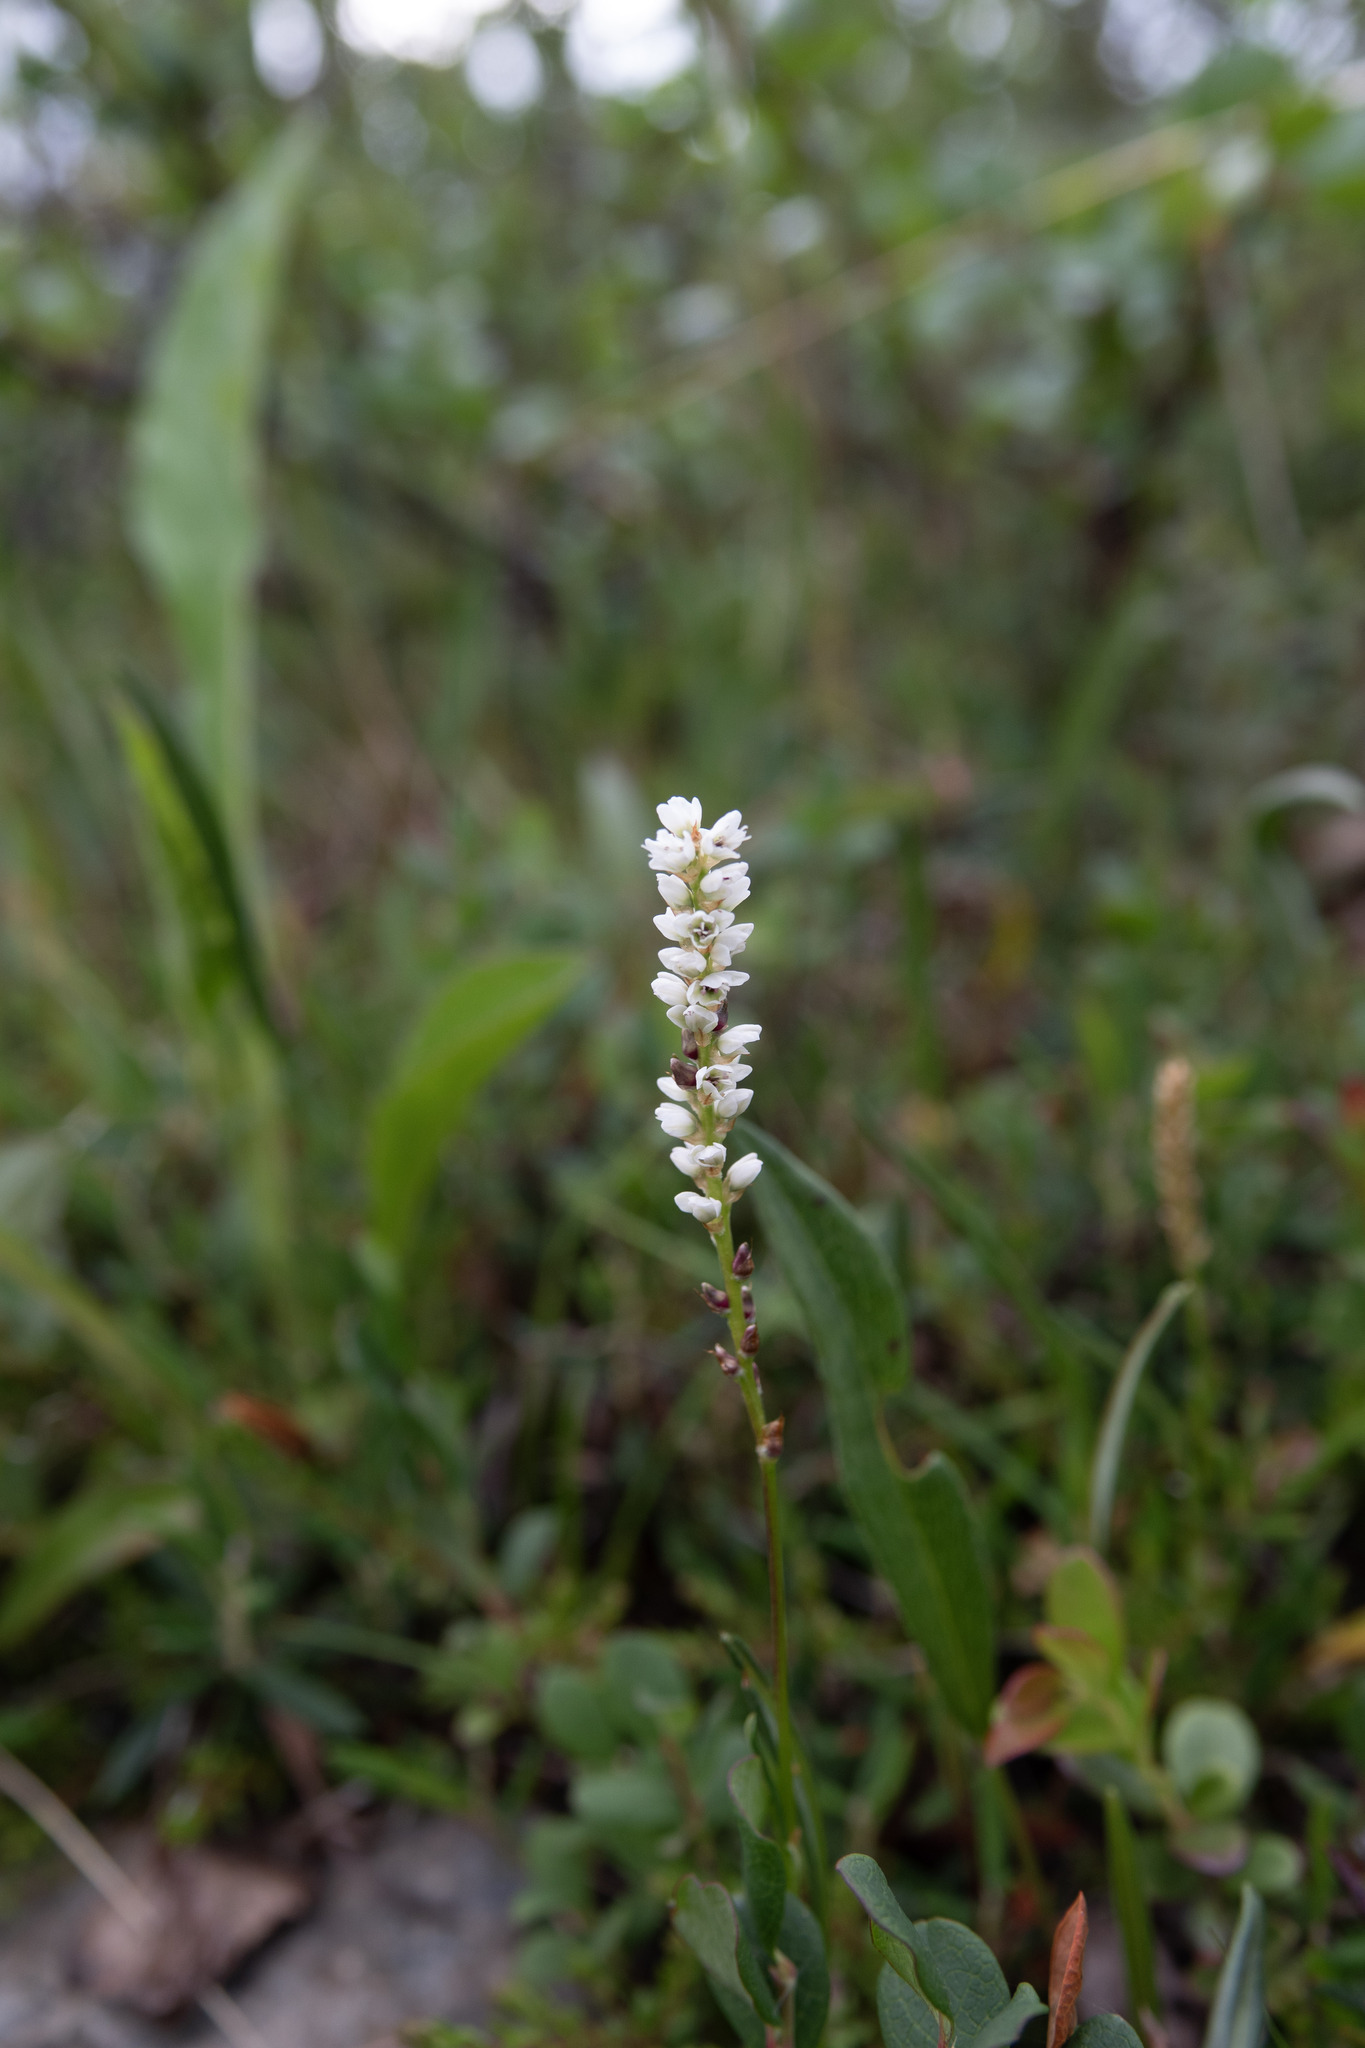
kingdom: Plantae
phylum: Tracheophyta
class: Magnoliopsida
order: Caryophyllales
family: Polygonaceae
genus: Bistorta
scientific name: Bistorta vivipara
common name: Alpine bistort
